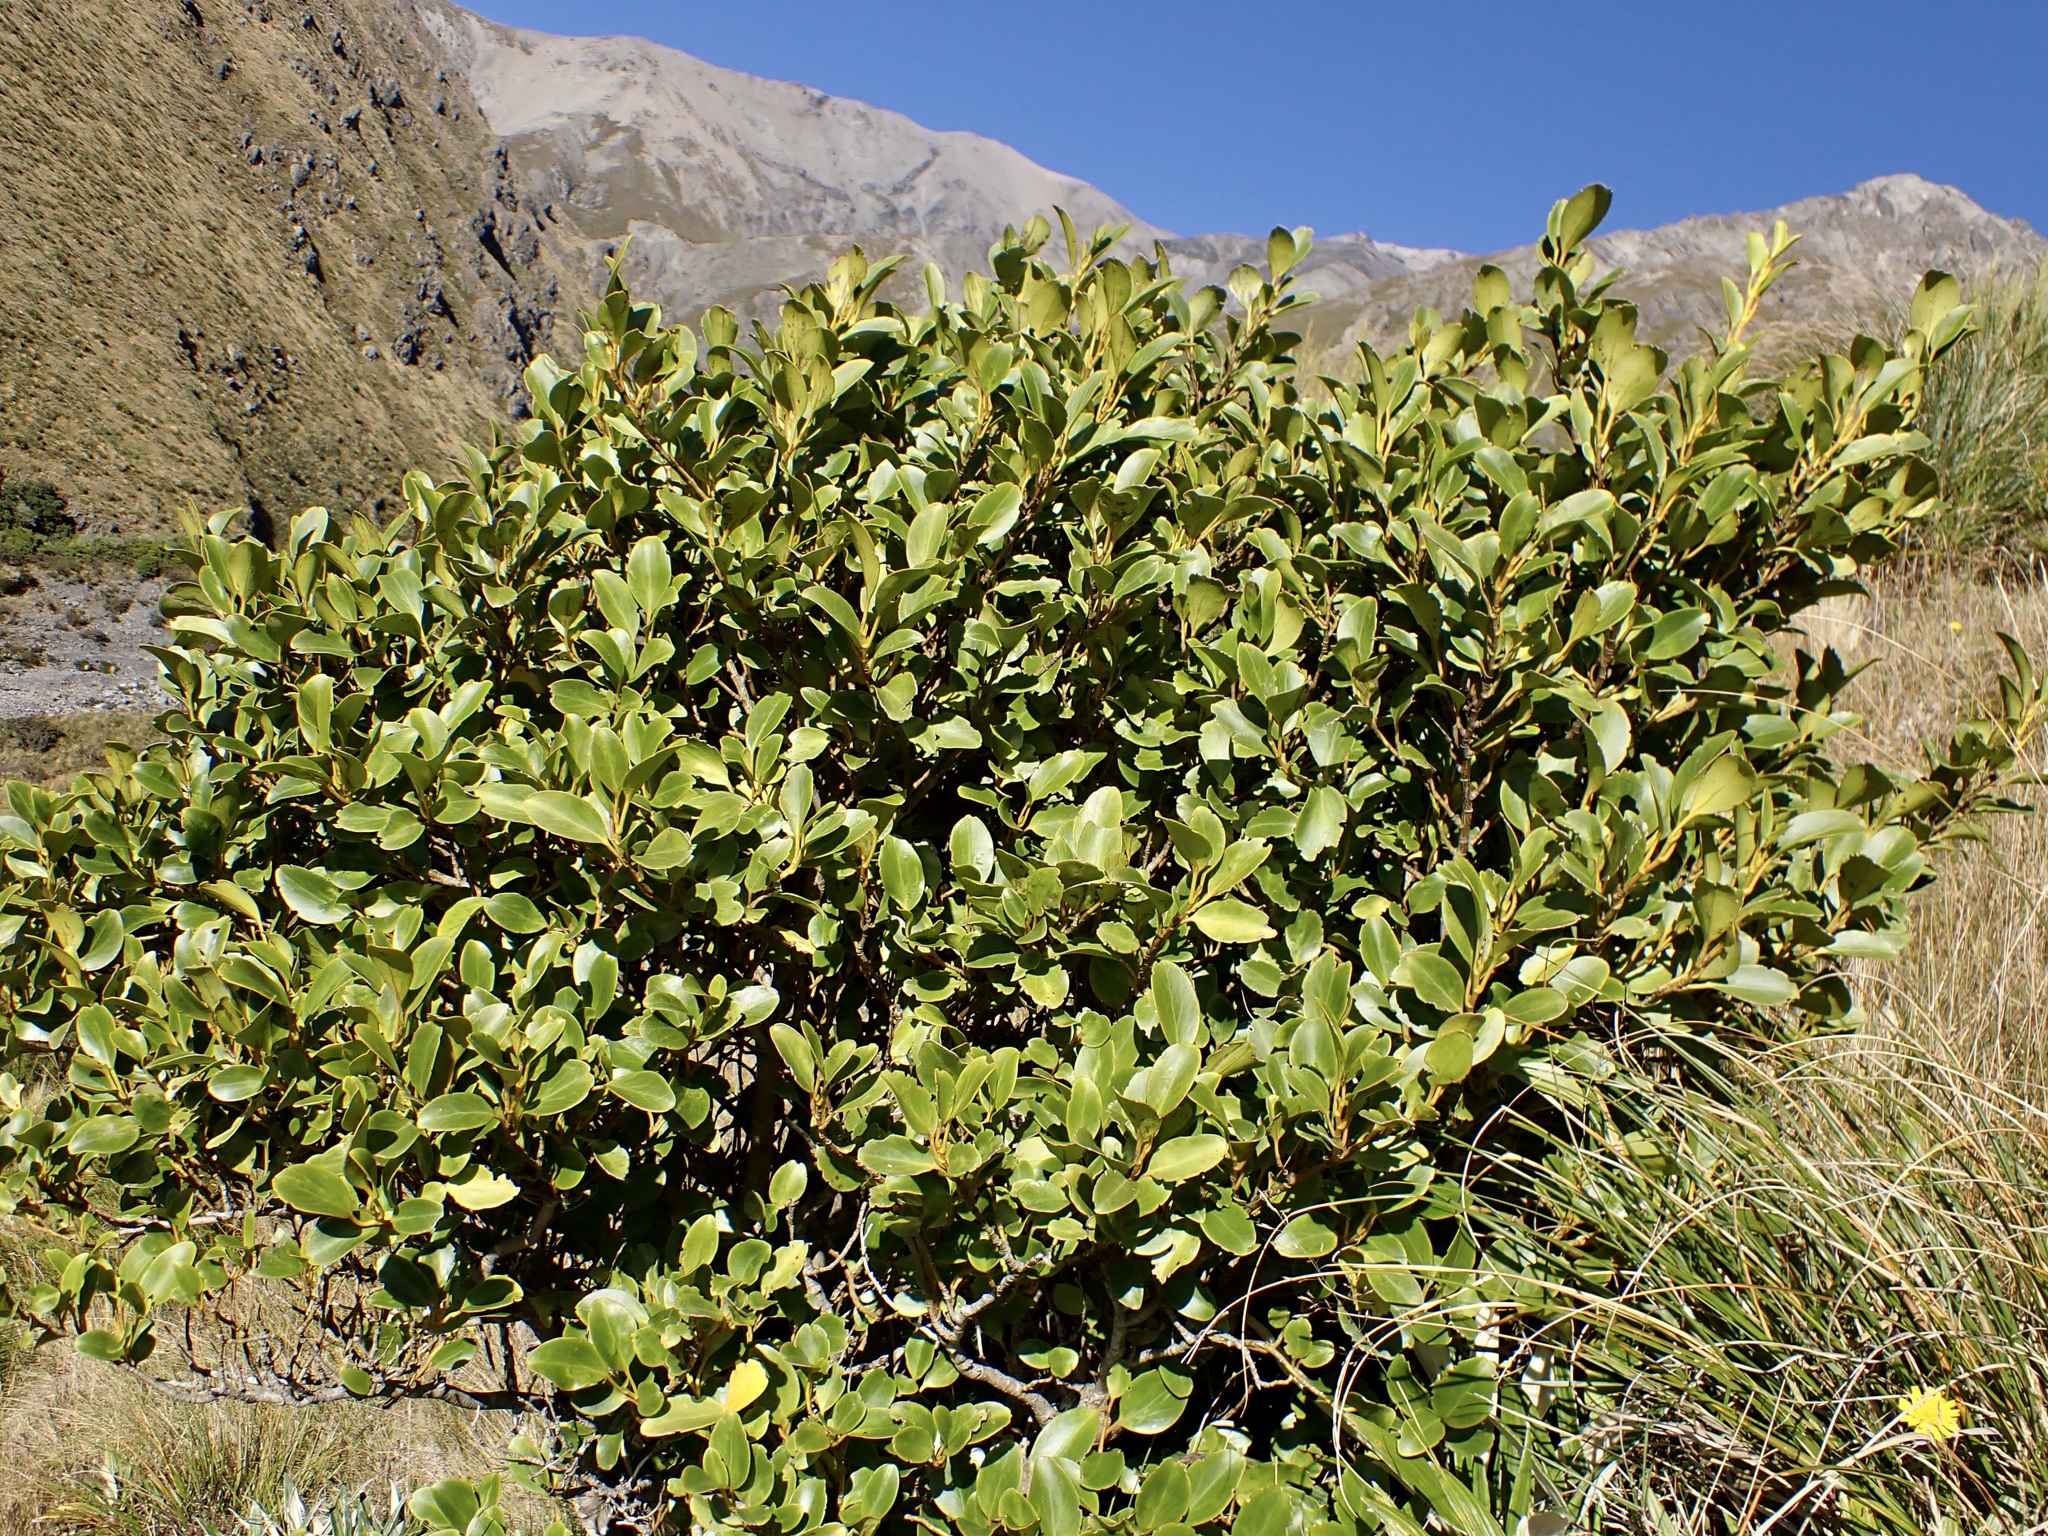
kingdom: Plantae
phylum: Tracheophyta
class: Magnoliopsida
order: Apiales
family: Griseliniaceae
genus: Griselinia
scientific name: Griselinia littoralis
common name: New zealand broadleaf
